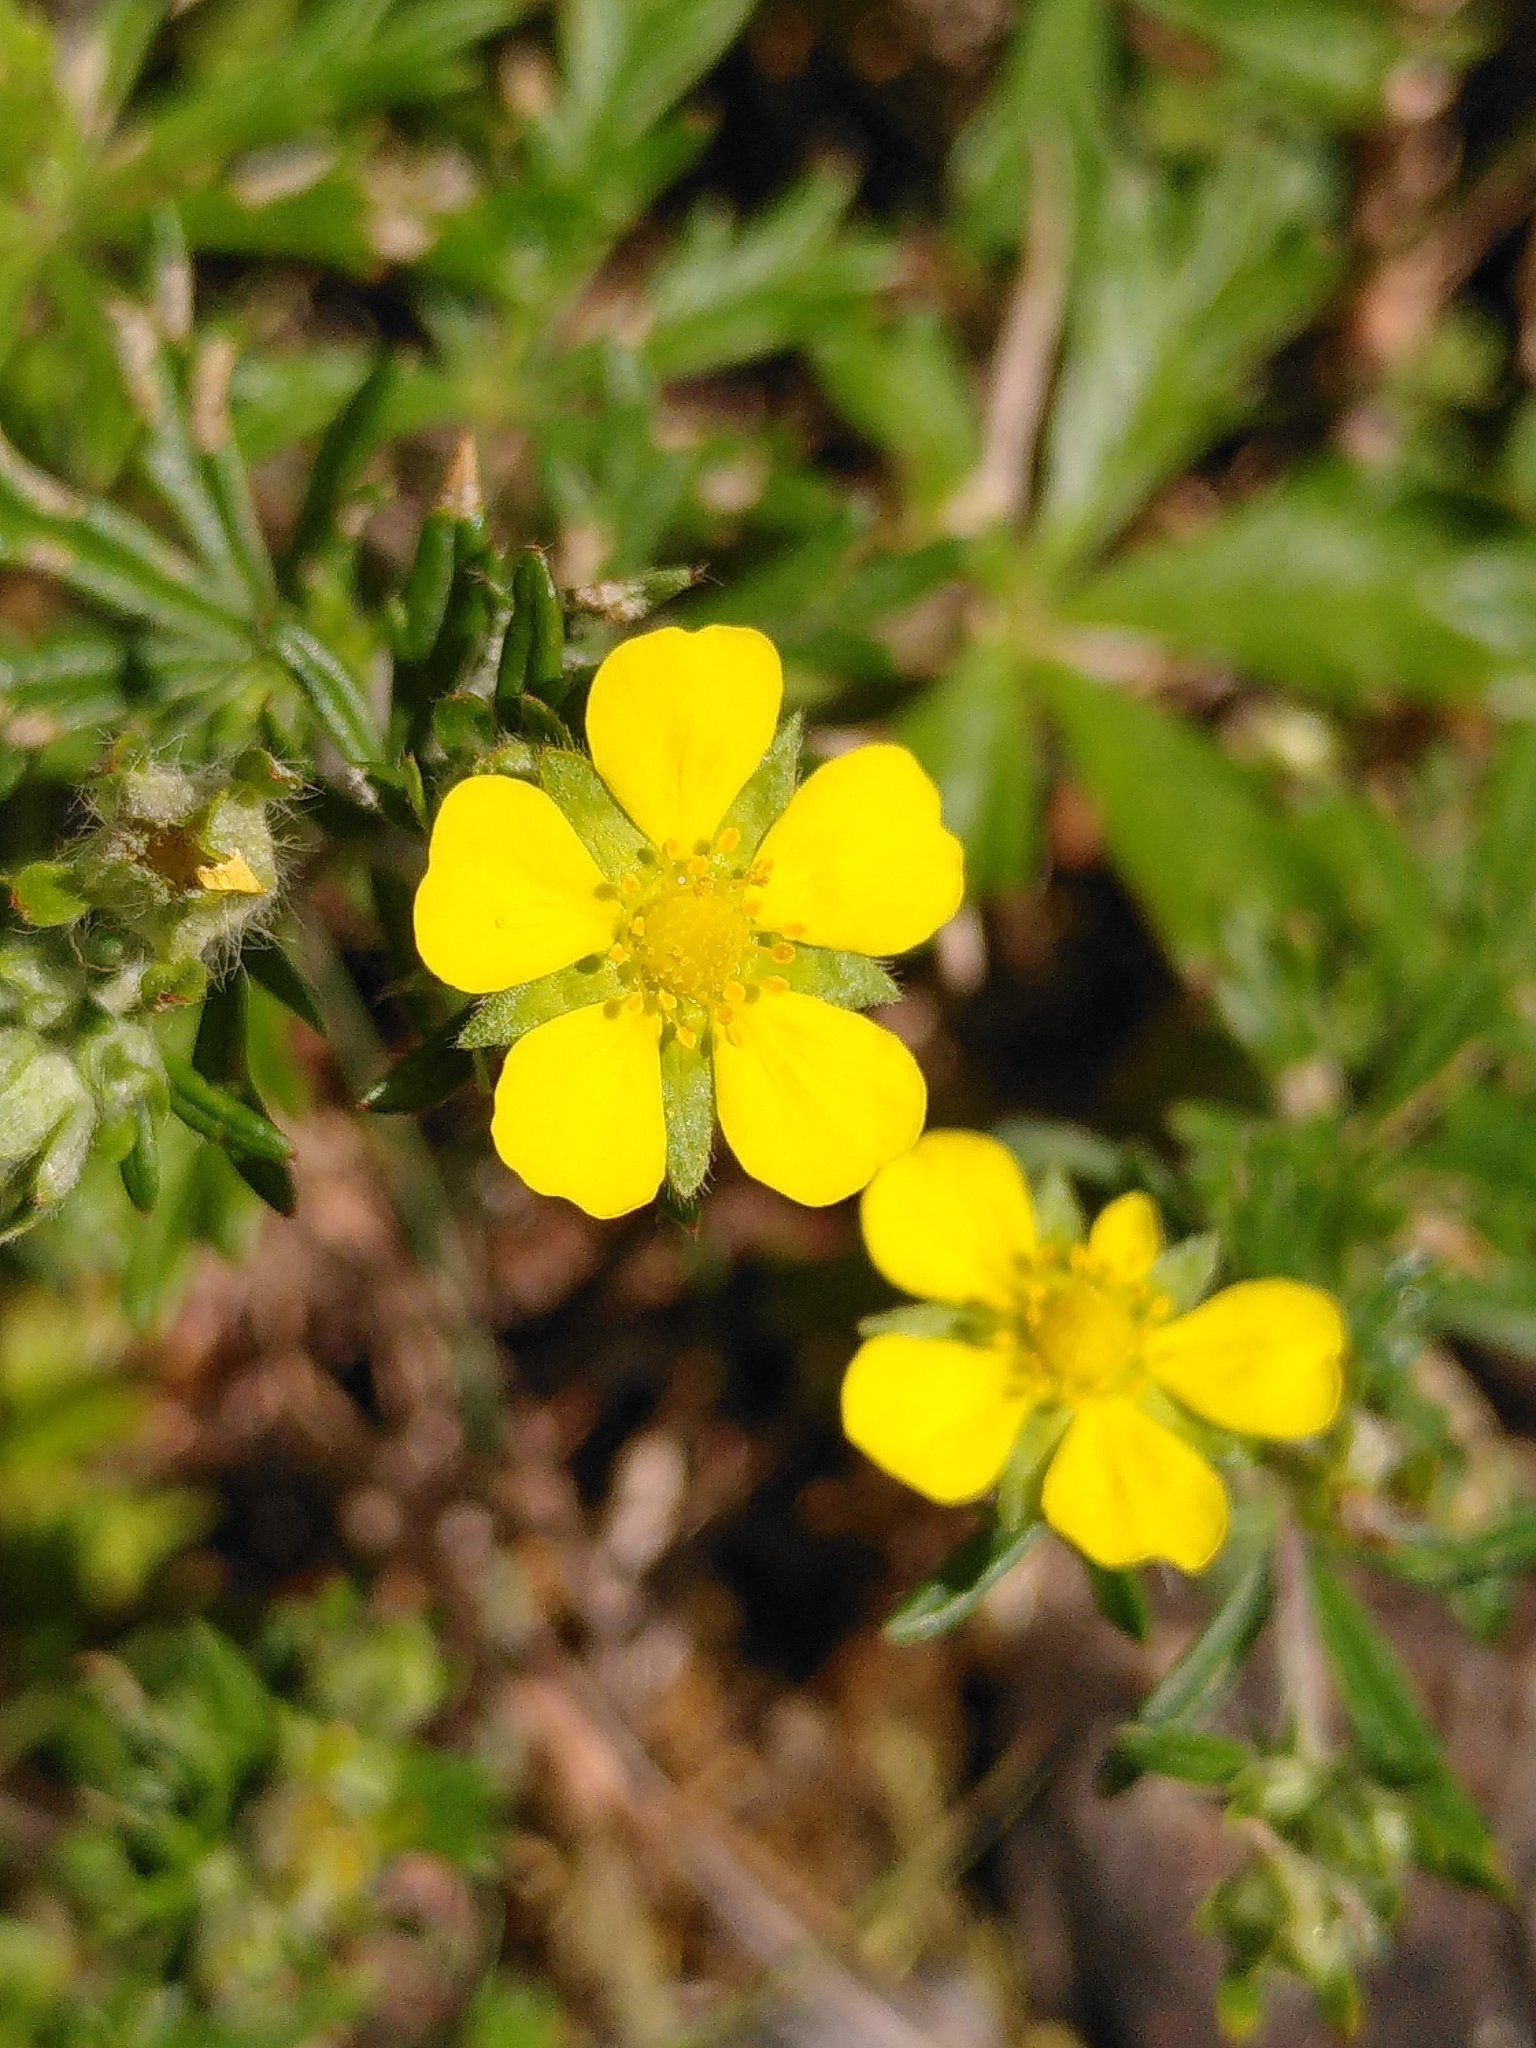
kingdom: Plantae
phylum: Tracheophyta
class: Magnoliopsida
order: Rosales
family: Rosaceae
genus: Potentilla
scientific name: Potentilla argentea
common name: Hoary cinquefoil
